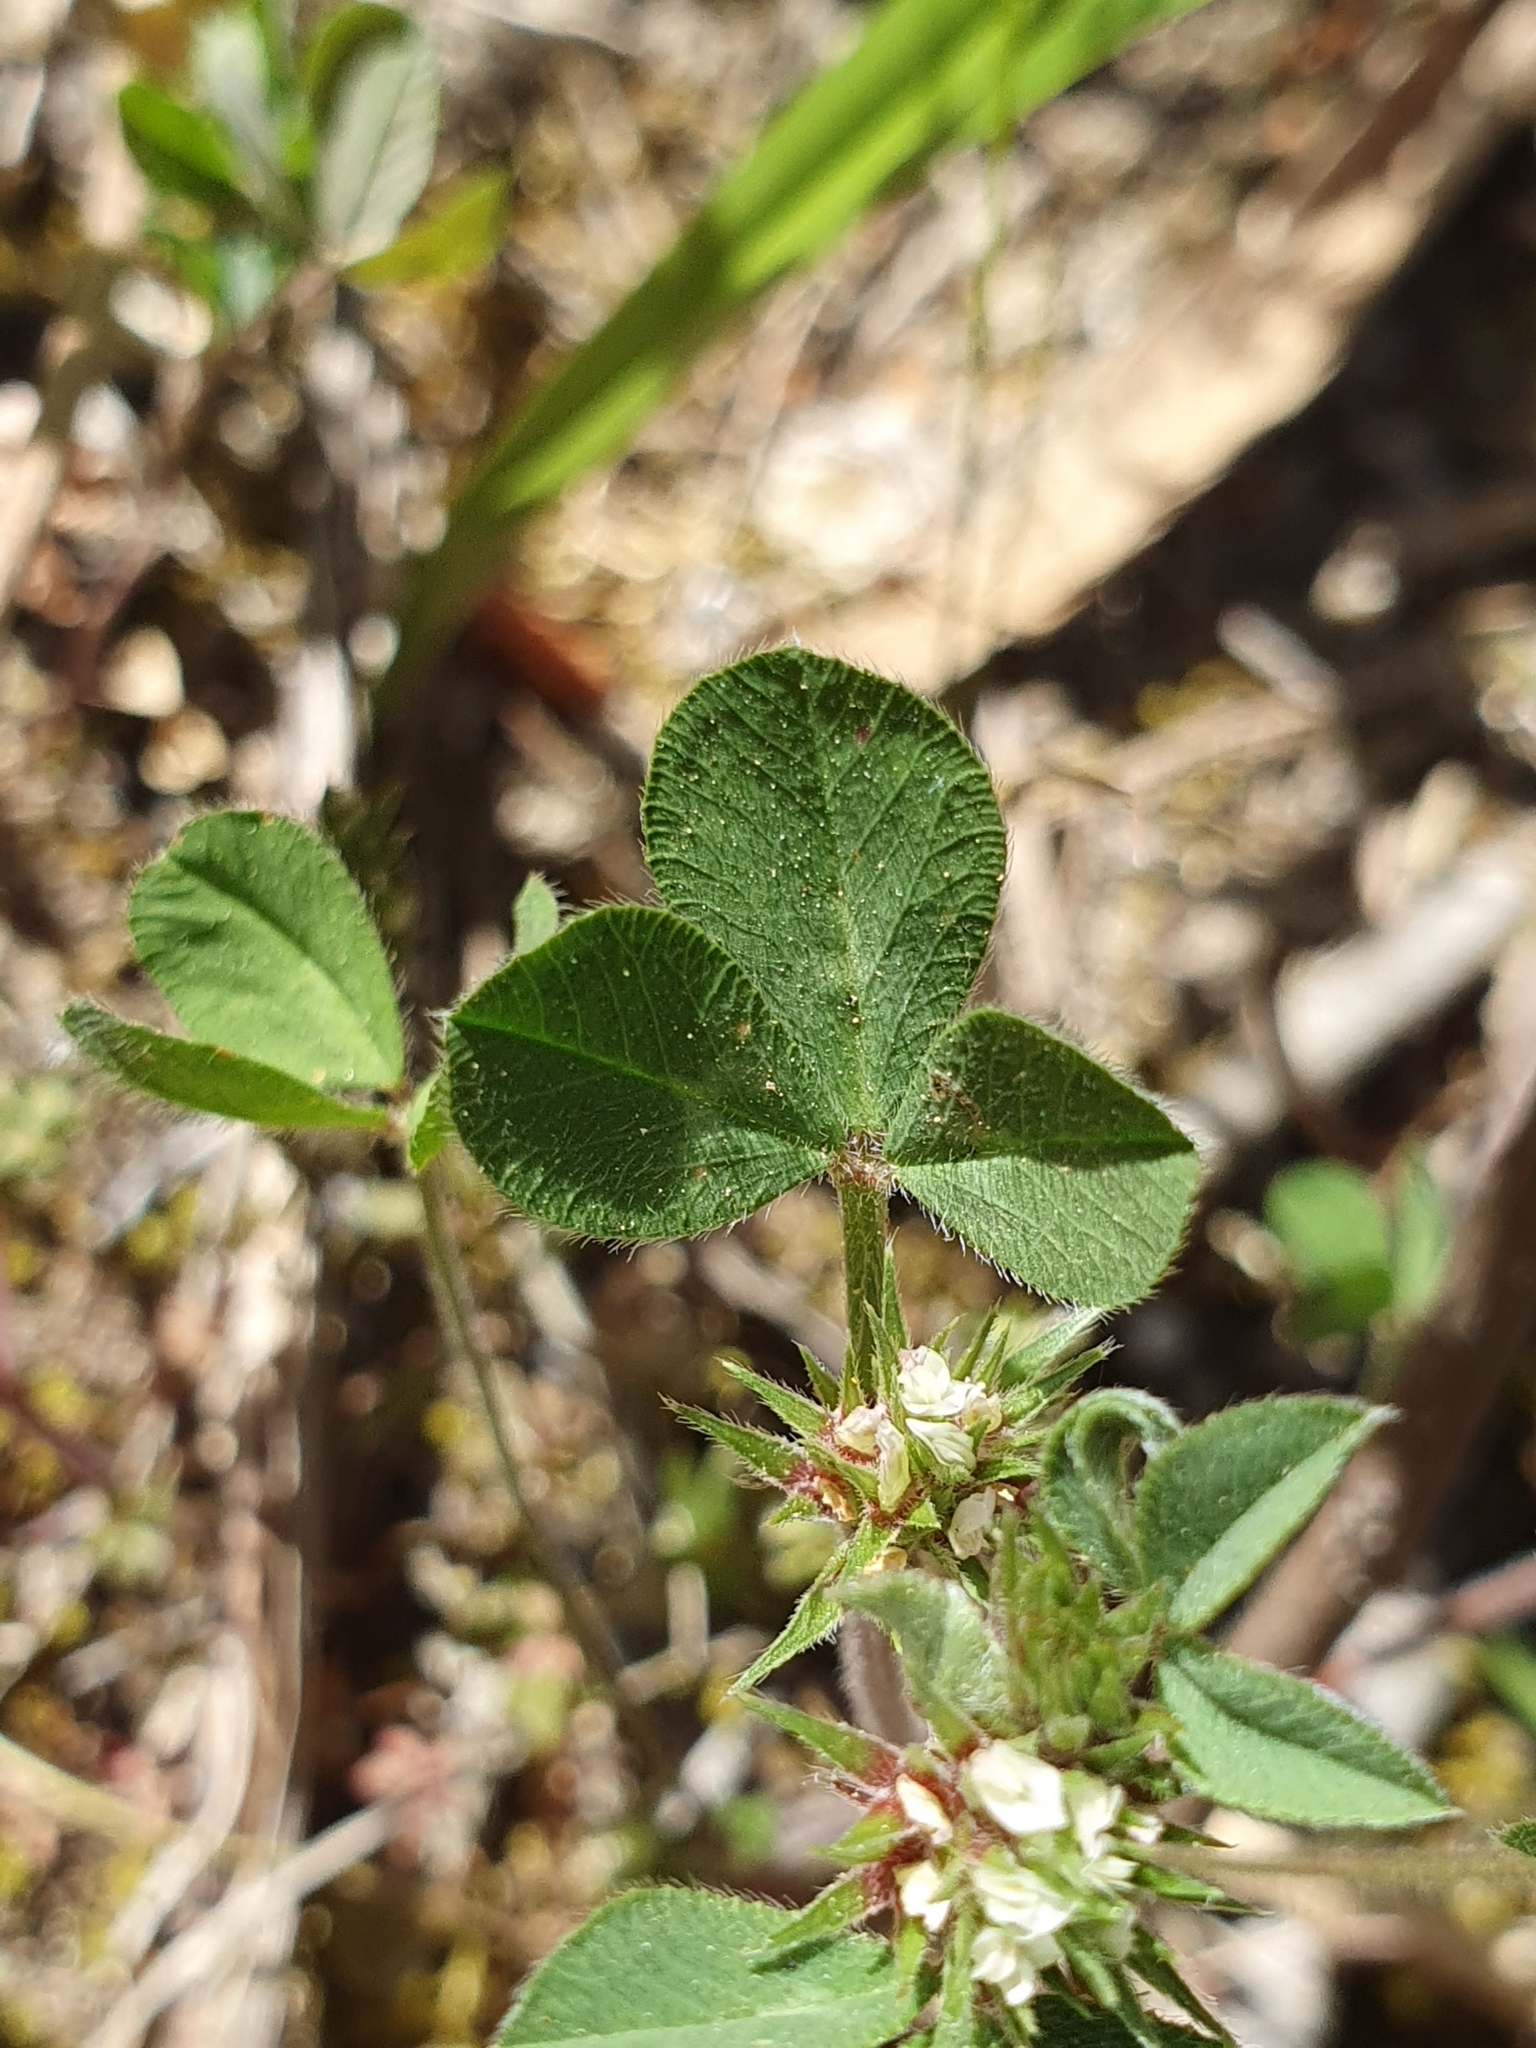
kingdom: Plantae
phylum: Tracheophyta
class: Magnoliopsida
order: Fabales
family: Fabaceae
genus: Trifolium
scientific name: Trifolium scabrum
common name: Rough clover
